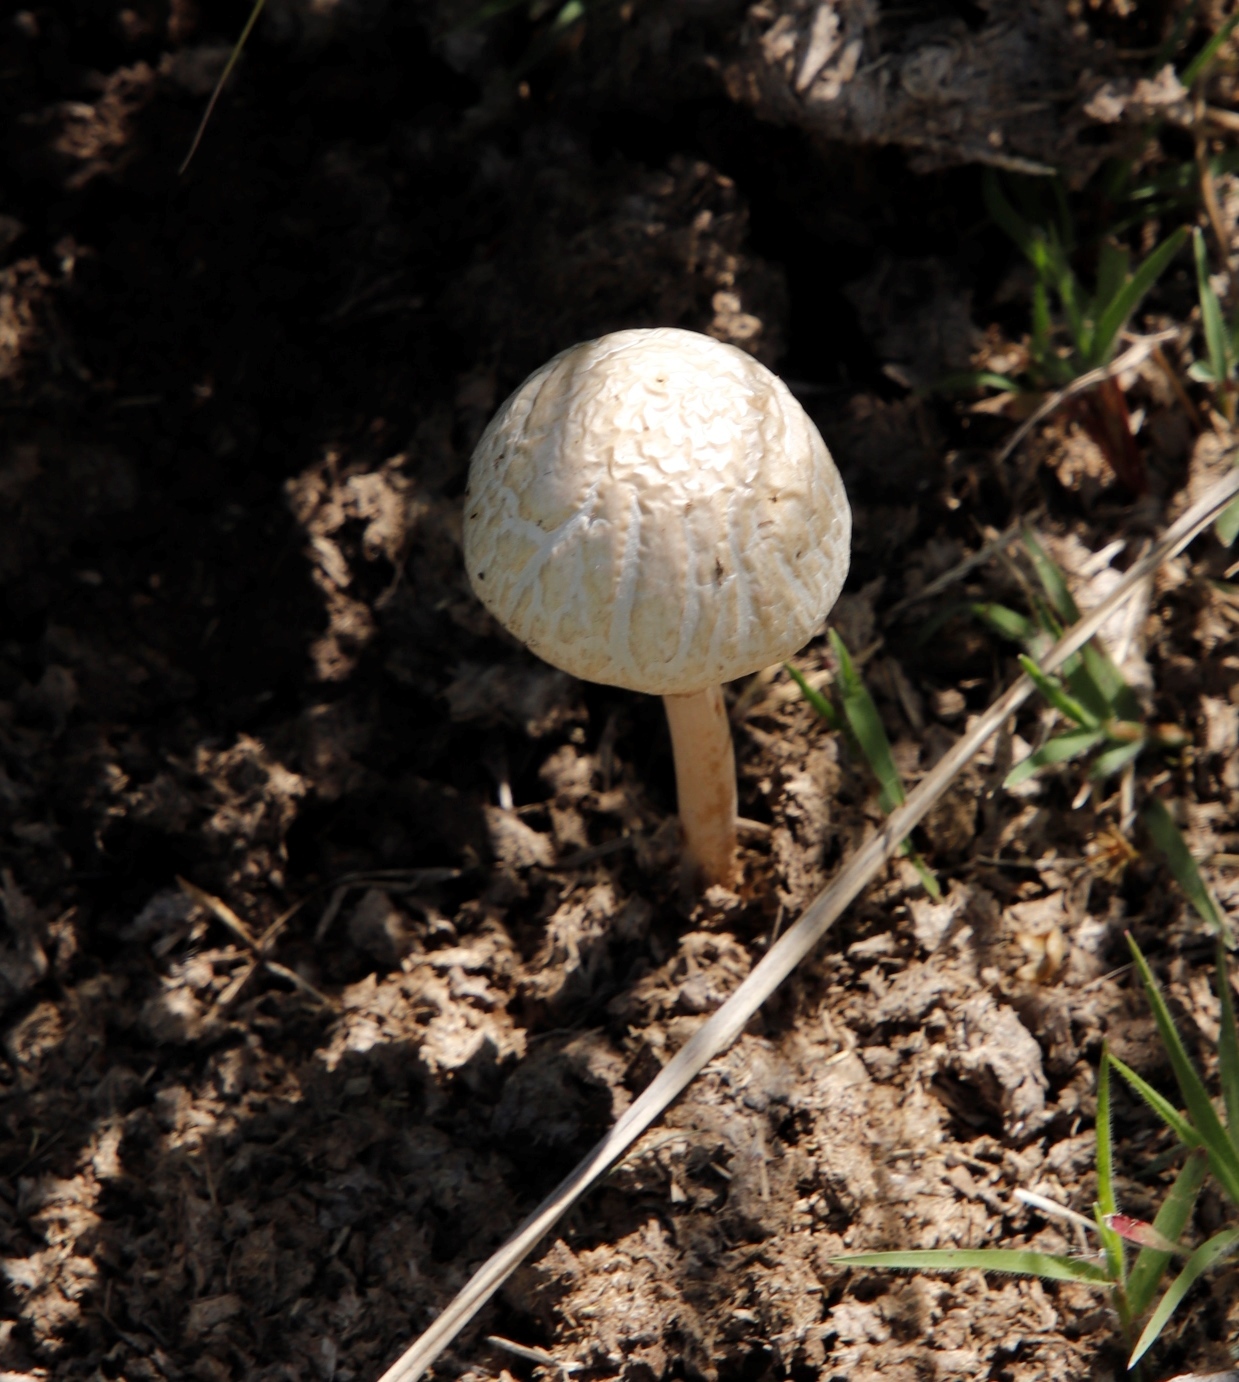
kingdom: Fungi
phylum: Basidiomycota
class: Agaricomycetes
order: Agaricales
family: Bolbitiaceae
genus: Panaeolus
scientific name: Panaeolus antillarum
